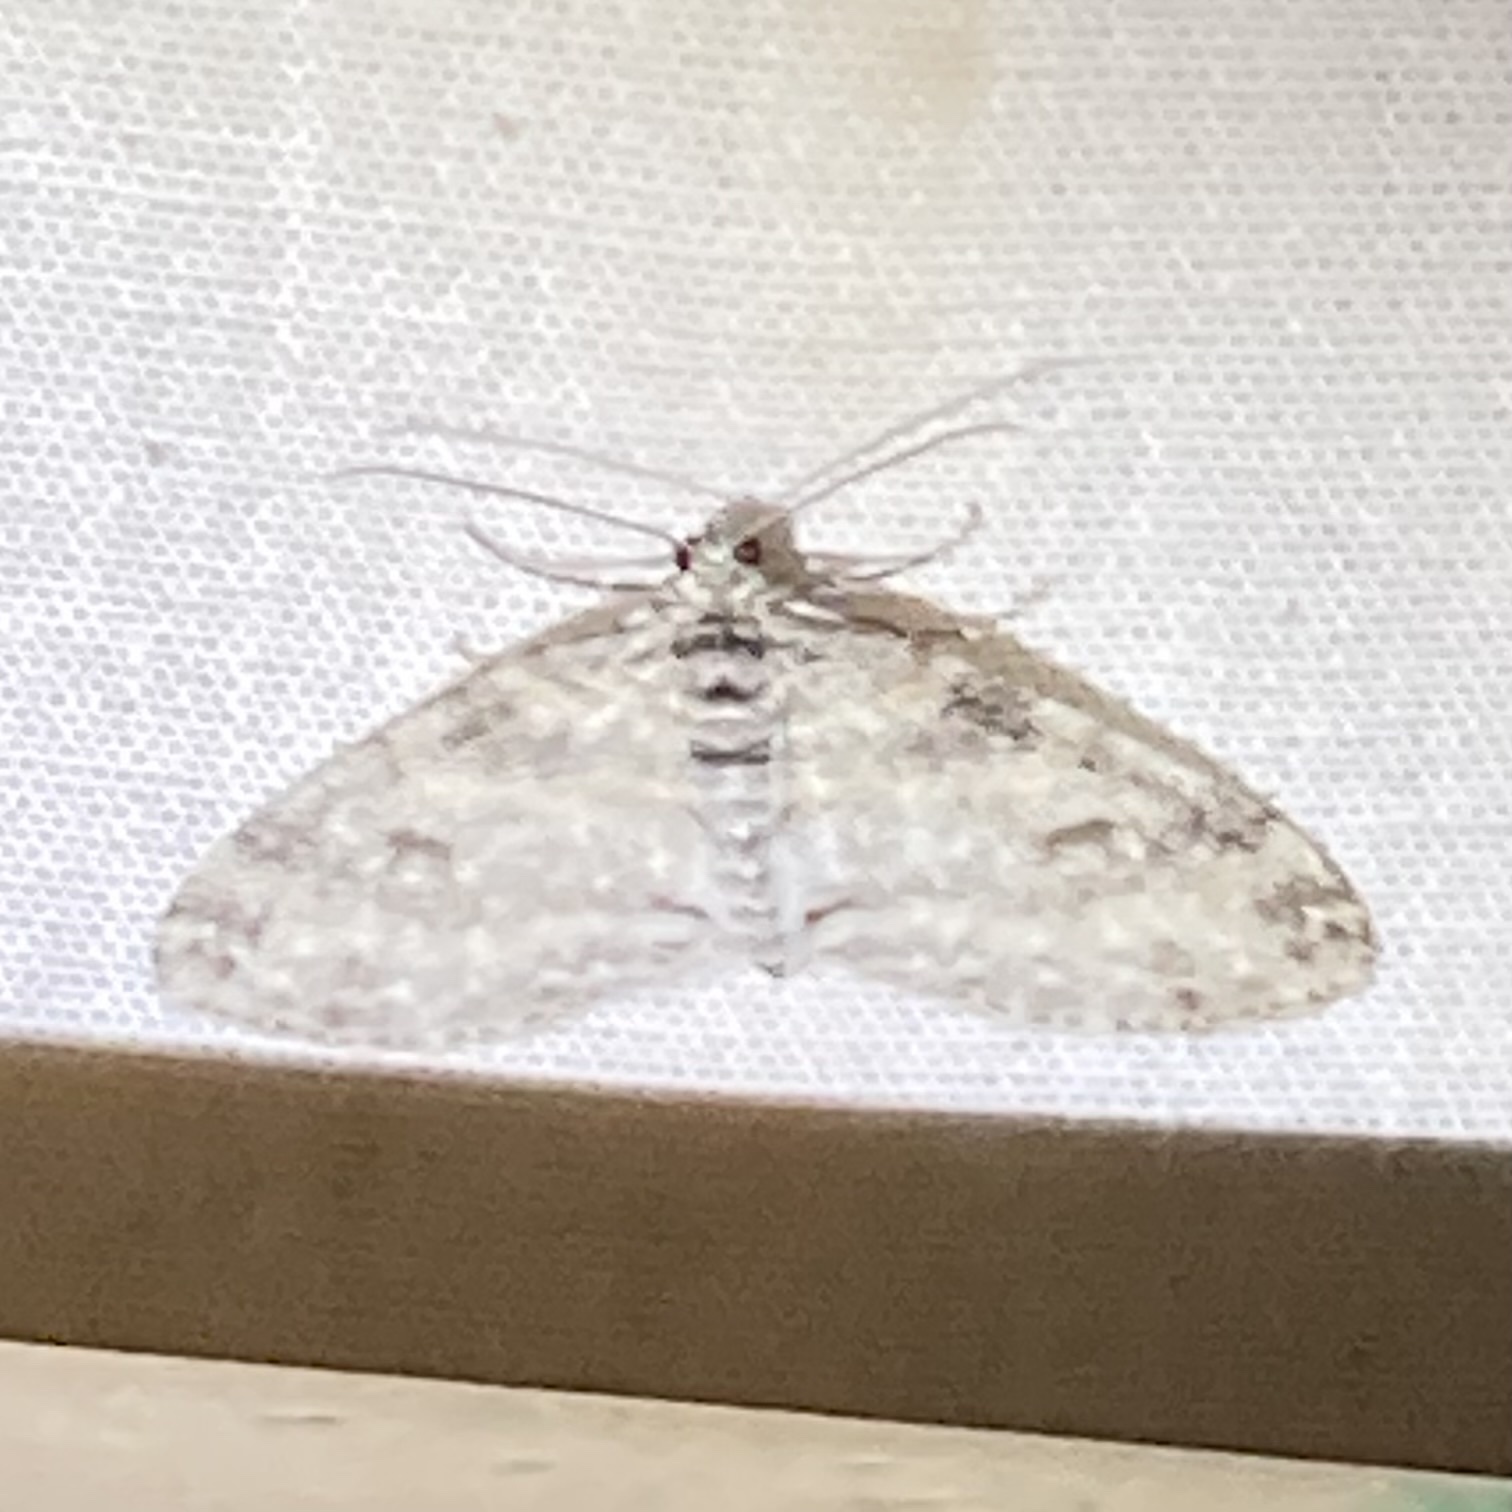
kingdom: Animalia
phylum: Arthropoda
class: Insecta
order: Lepidoptera
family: Geometridae
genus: Lobophora
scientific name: Lobophora nivigerata
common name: Powdered bigwing
